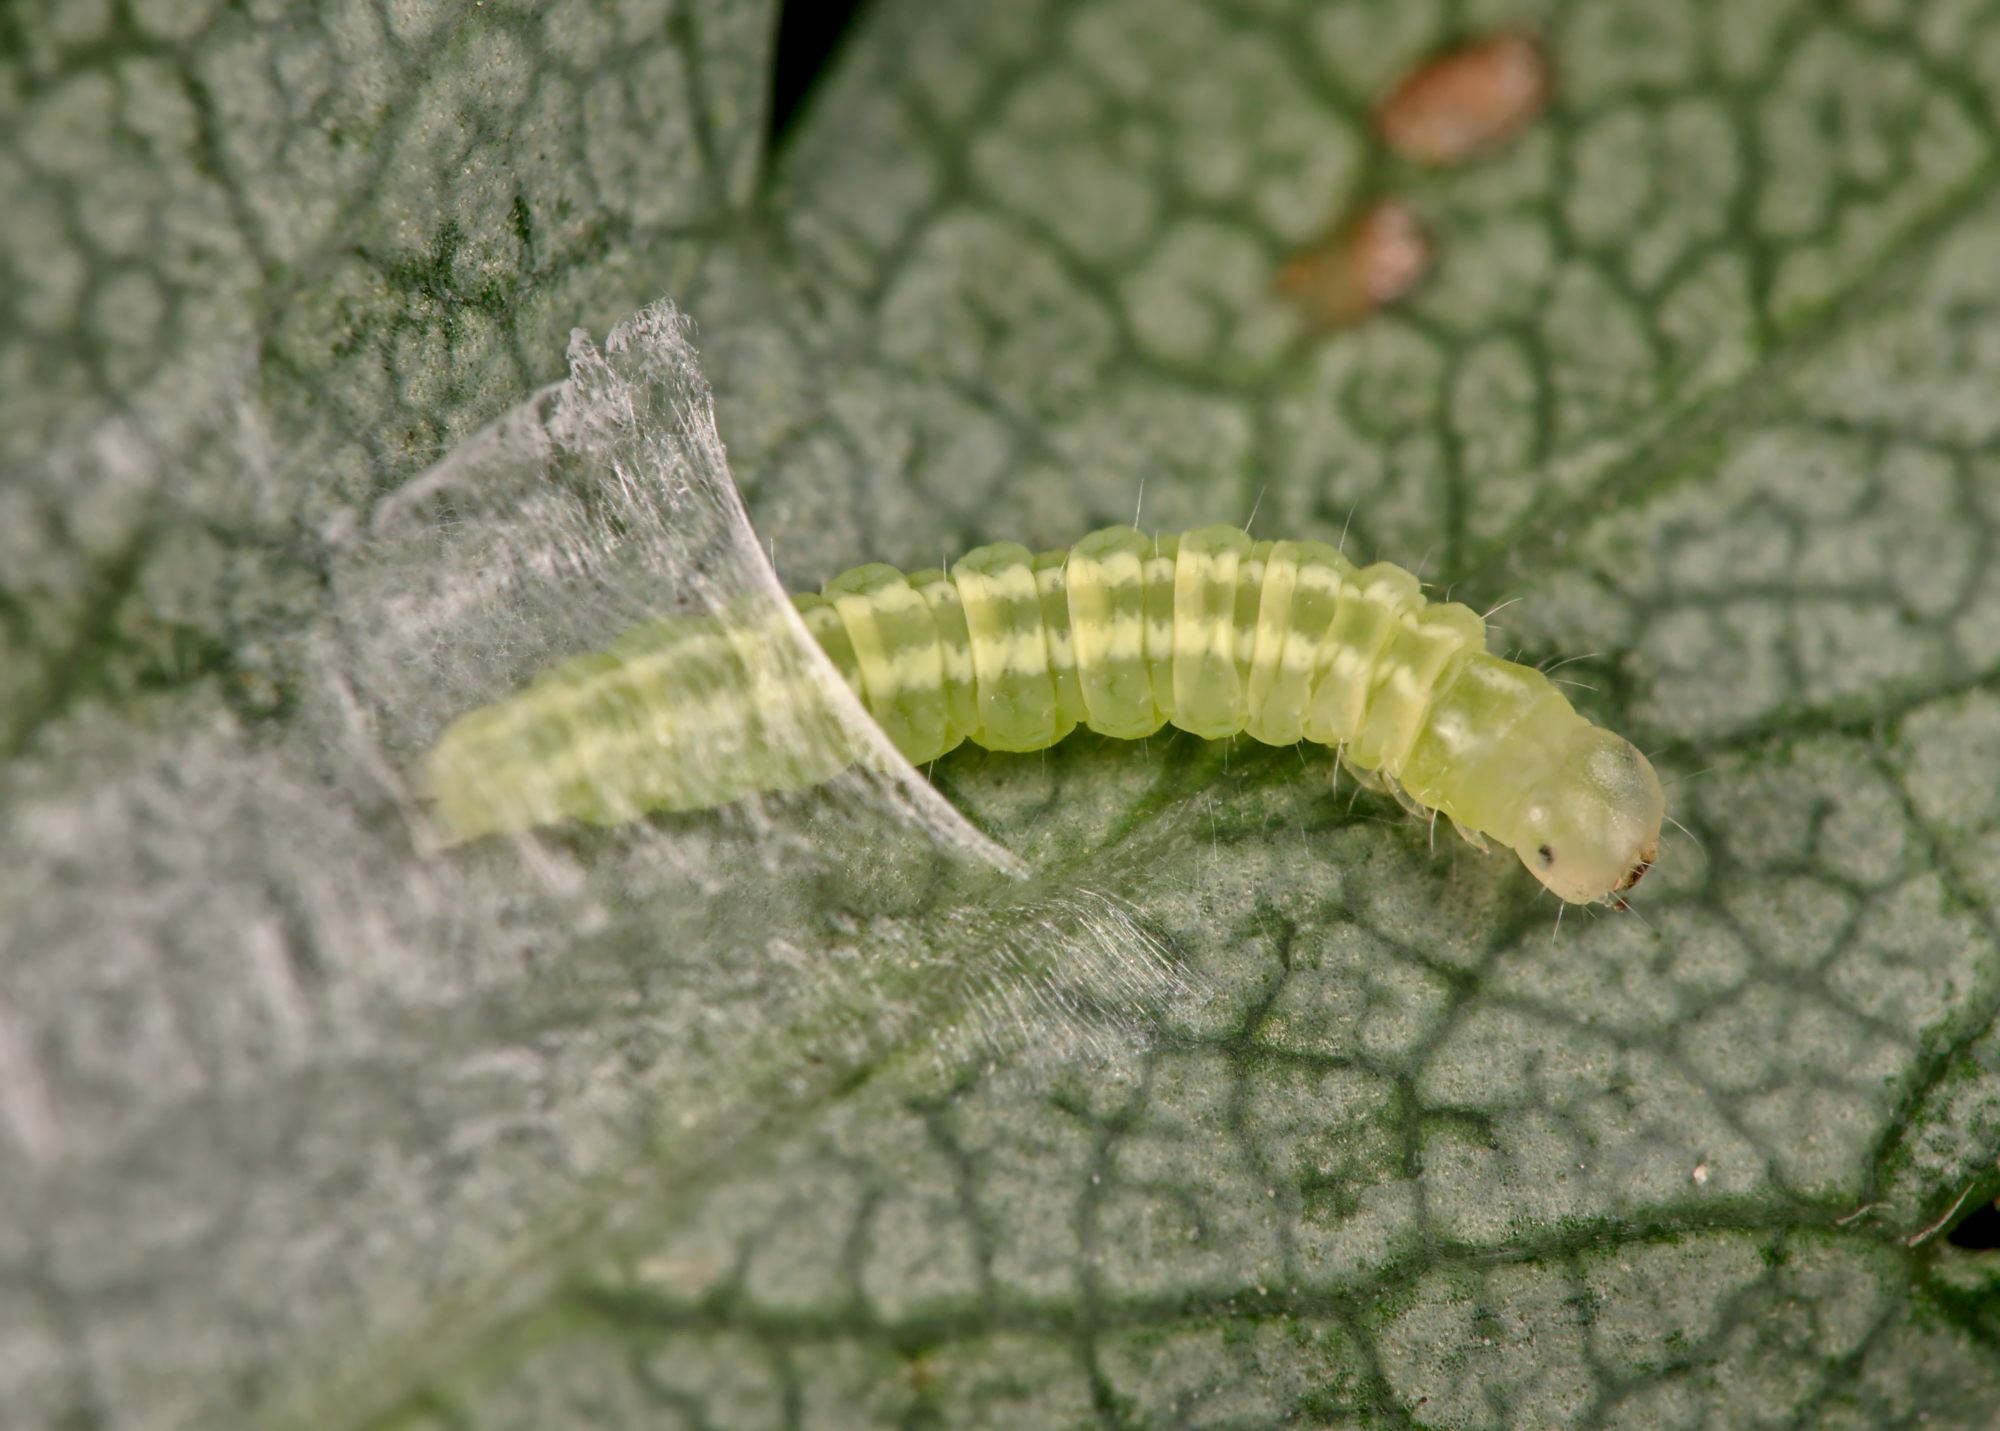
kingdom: Animalia
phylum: Arthropoda
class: Insecta
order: Lepidoptera
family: Peleopodidae
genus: Carcina
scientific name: Carcina quercana
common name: Moth
